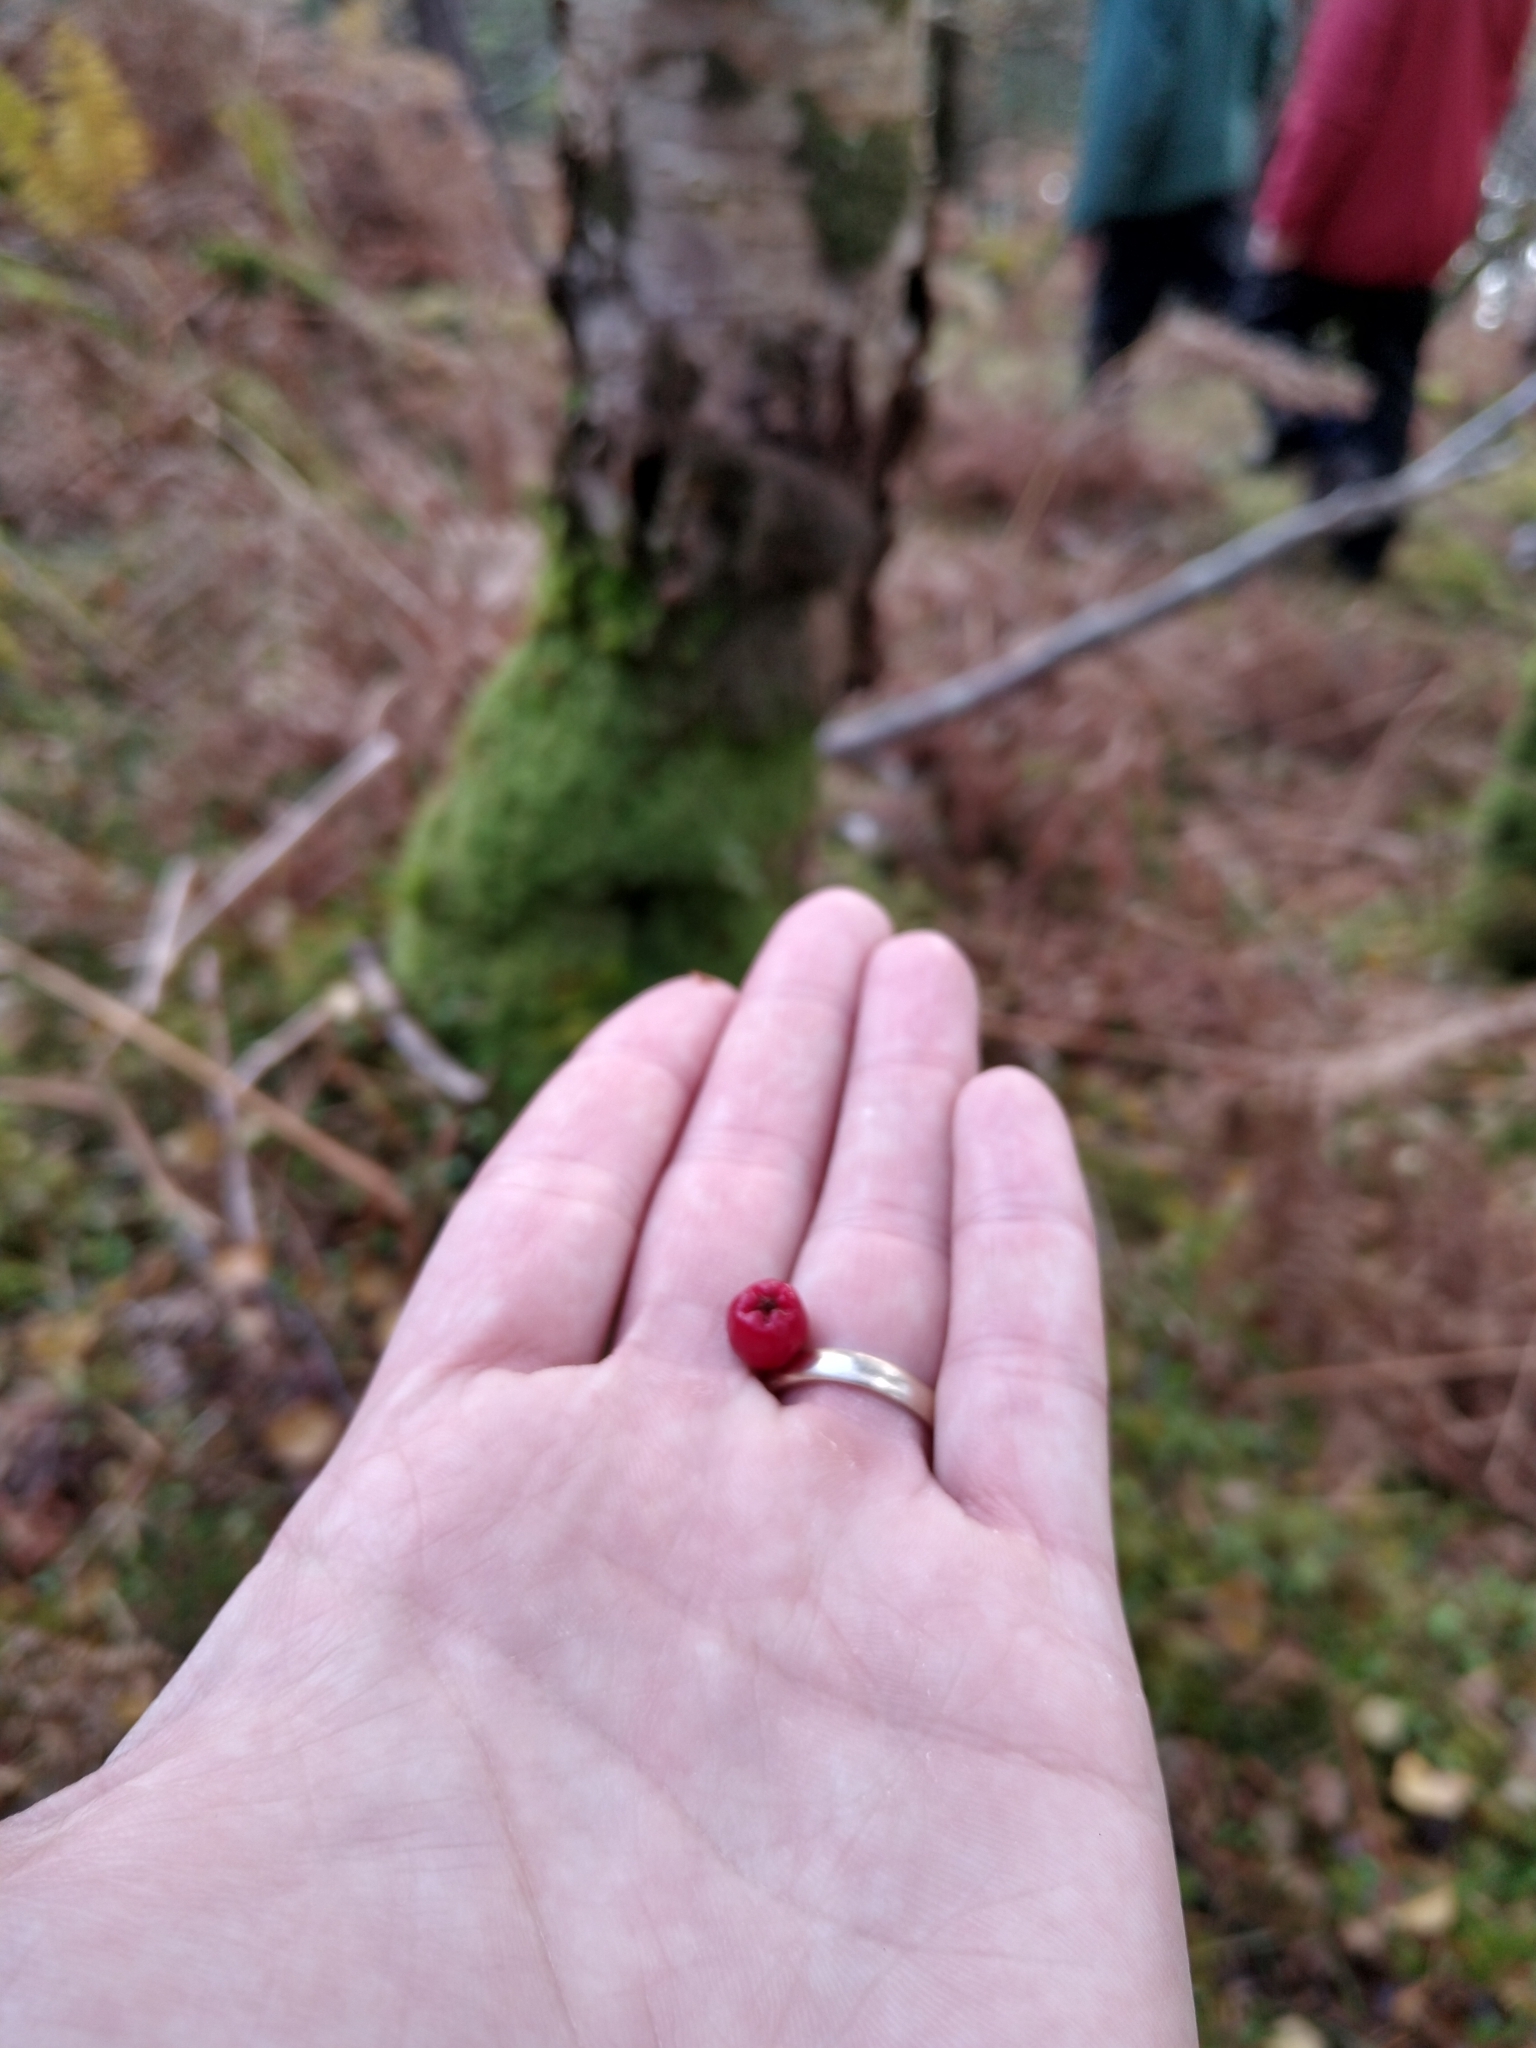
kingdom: Plantae
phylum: Tracheophyta
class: Magnoliopsida
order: Rosales
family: Rosaceae
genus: Sorbus
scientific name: Sorbus aucuparia
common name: Rowan
